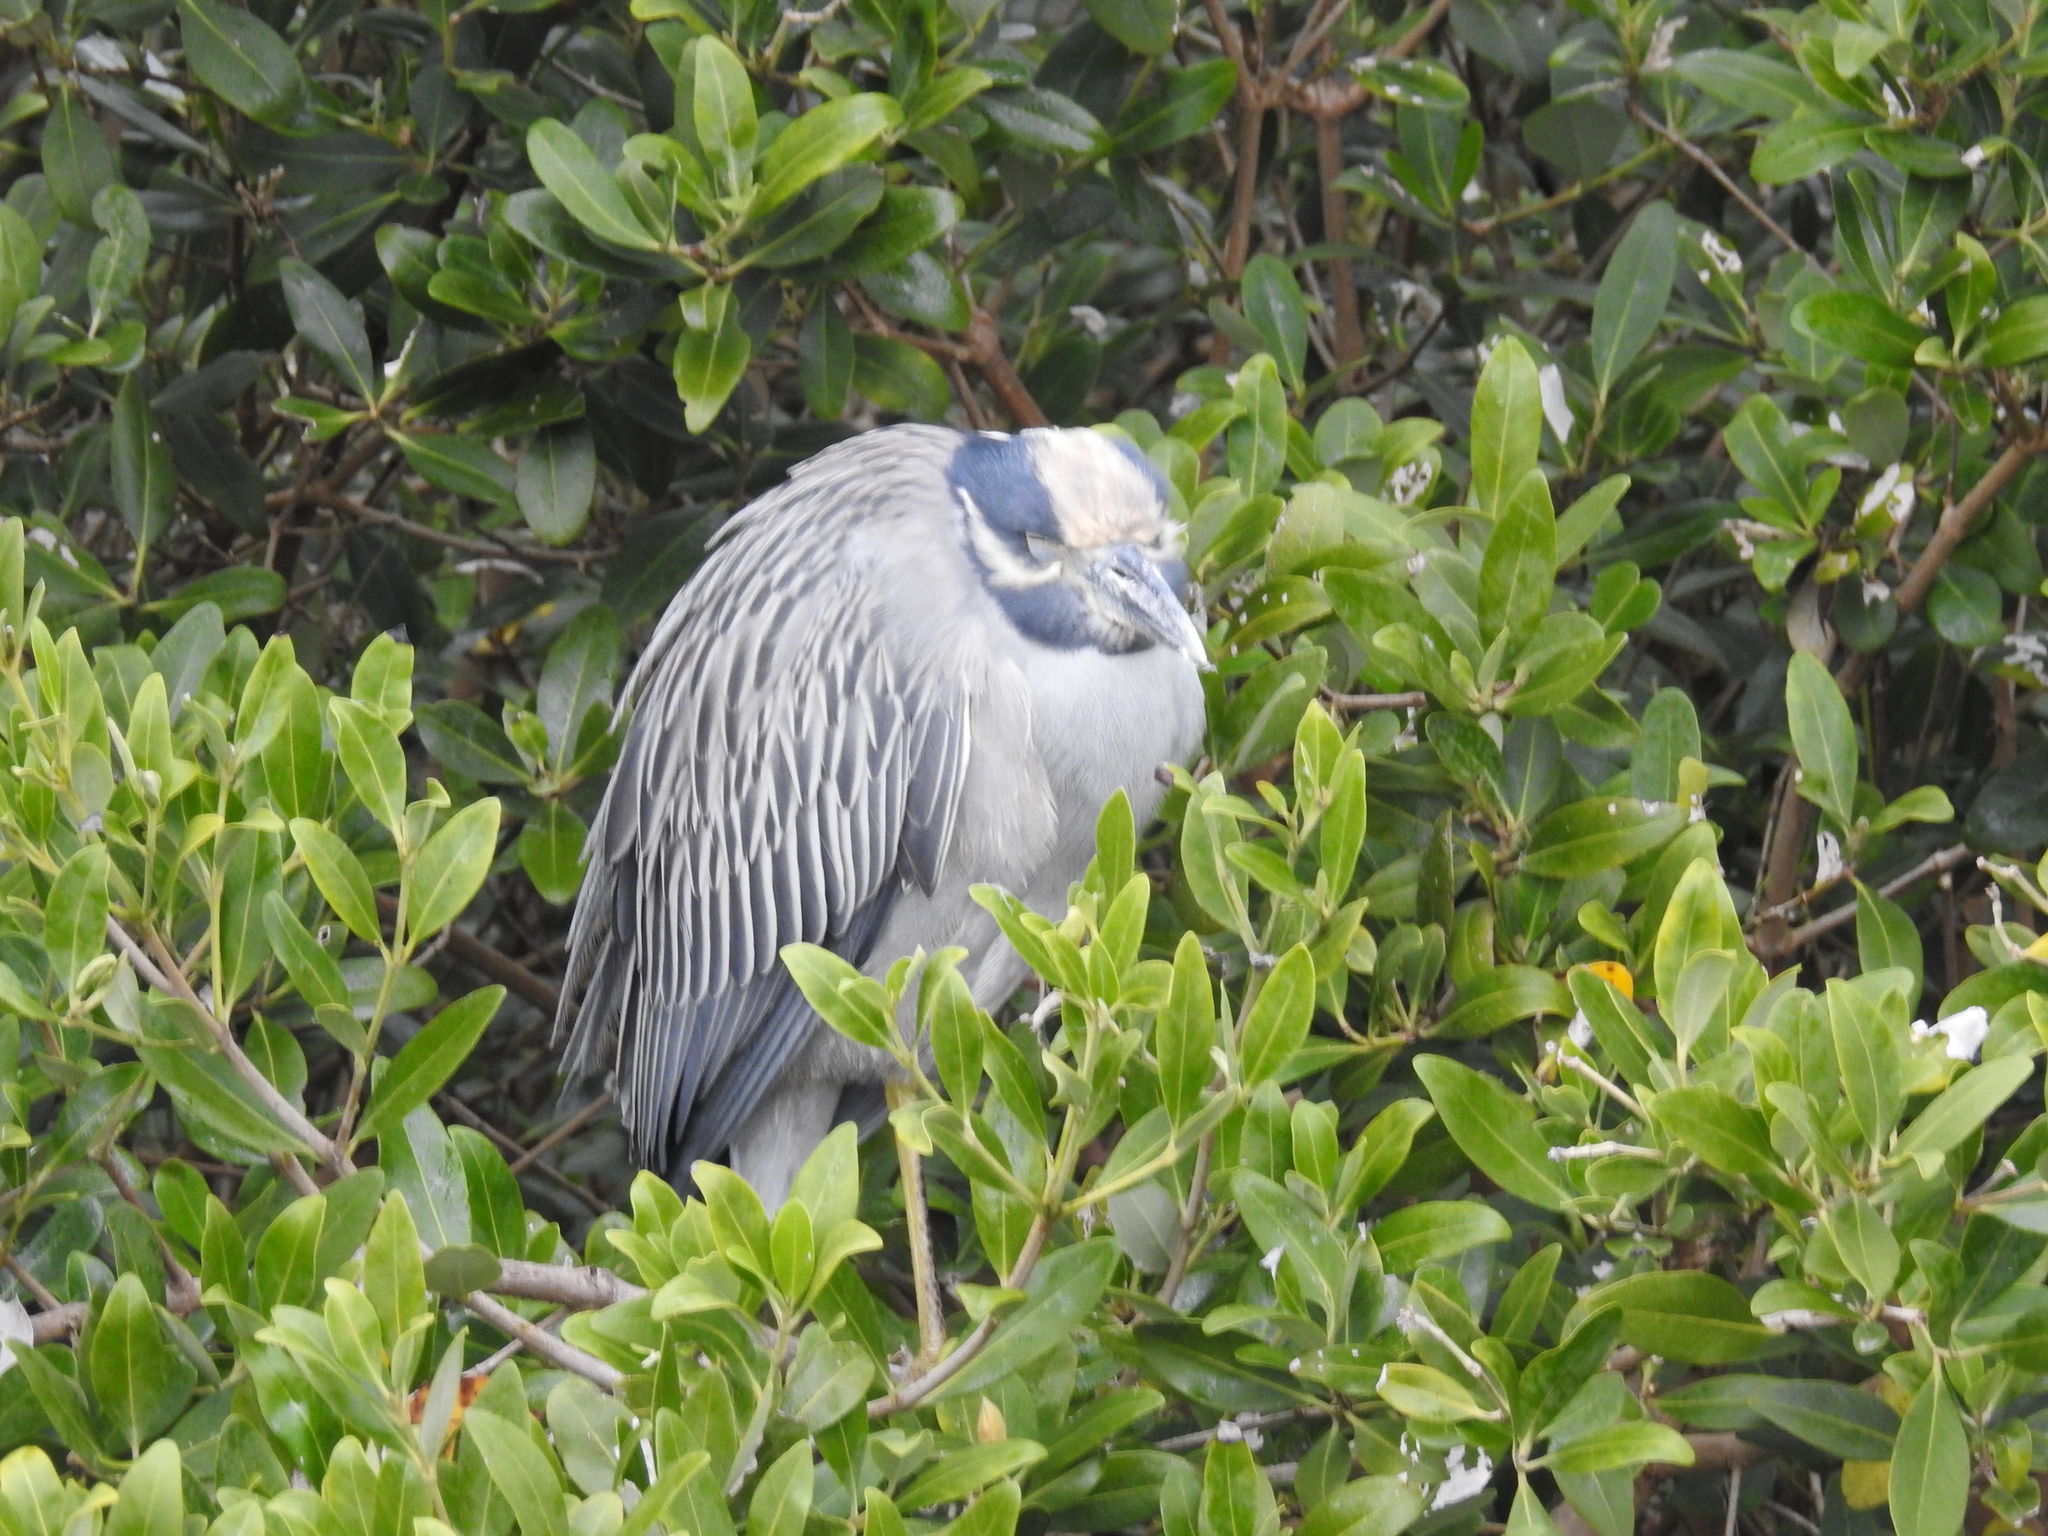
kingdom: Animalia
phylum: Chordata
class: Aves
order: Pelecaniformes
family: Ardeidae
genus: Nyctanassa
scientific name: Nyctanassa violacea
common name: Yellow-crowned night heron
